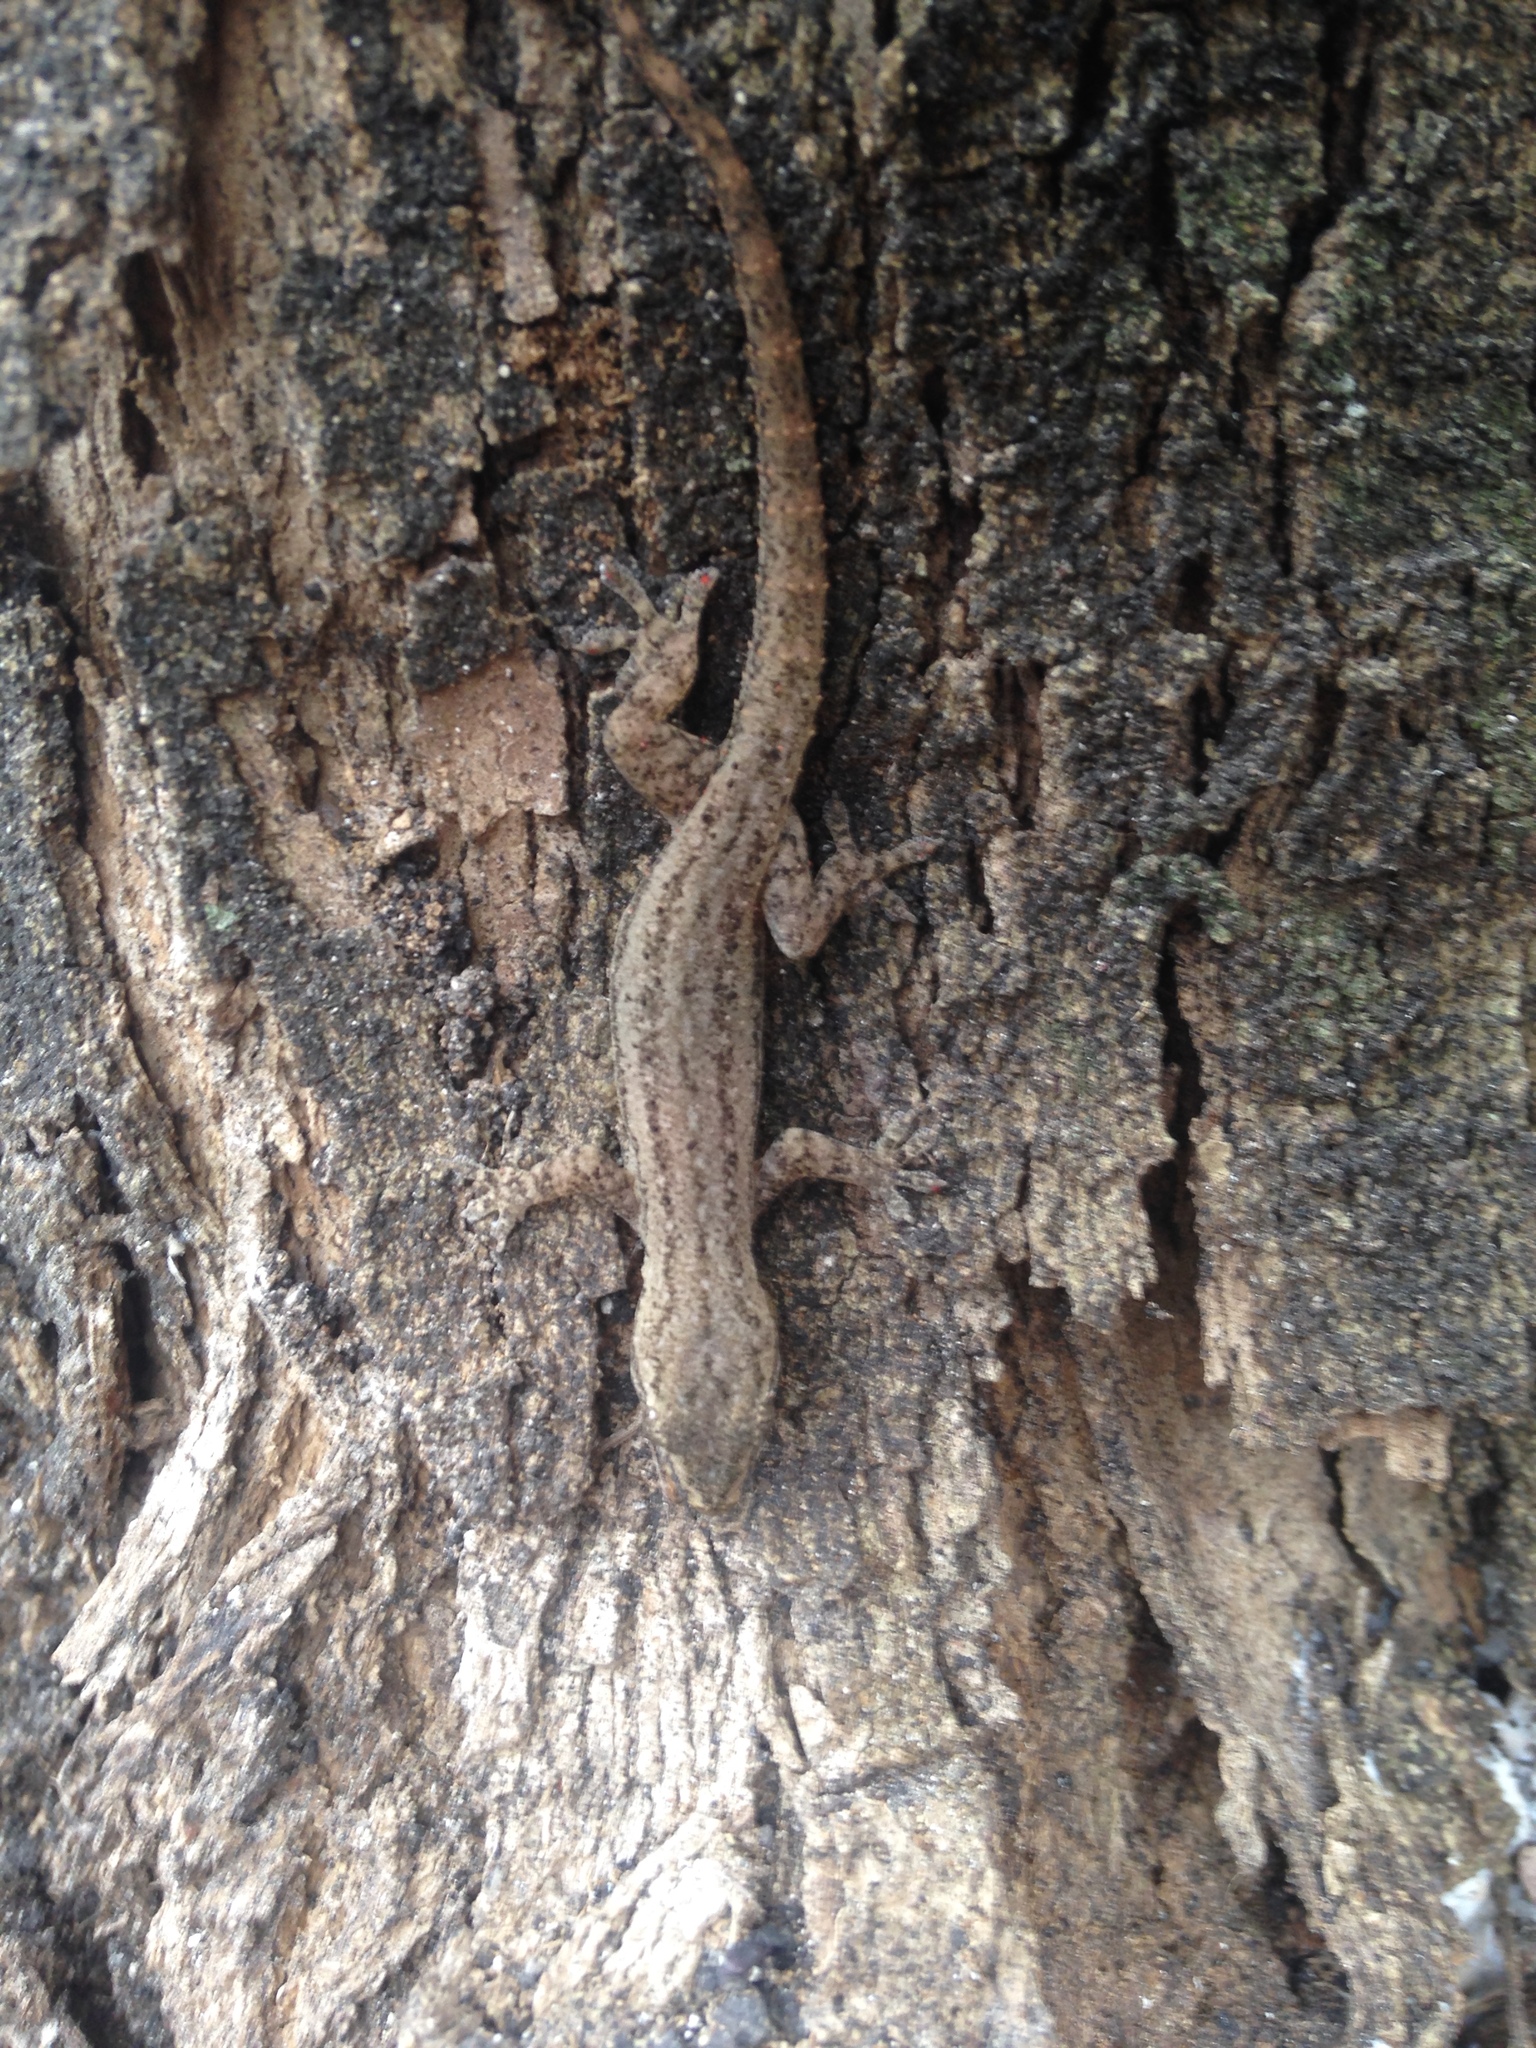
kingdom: Animalia
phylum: Chordata
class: Squamata
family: Gekkonidae
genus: Hemidactylus
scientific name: Hemidactylus frenatus
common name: Common house gecko
